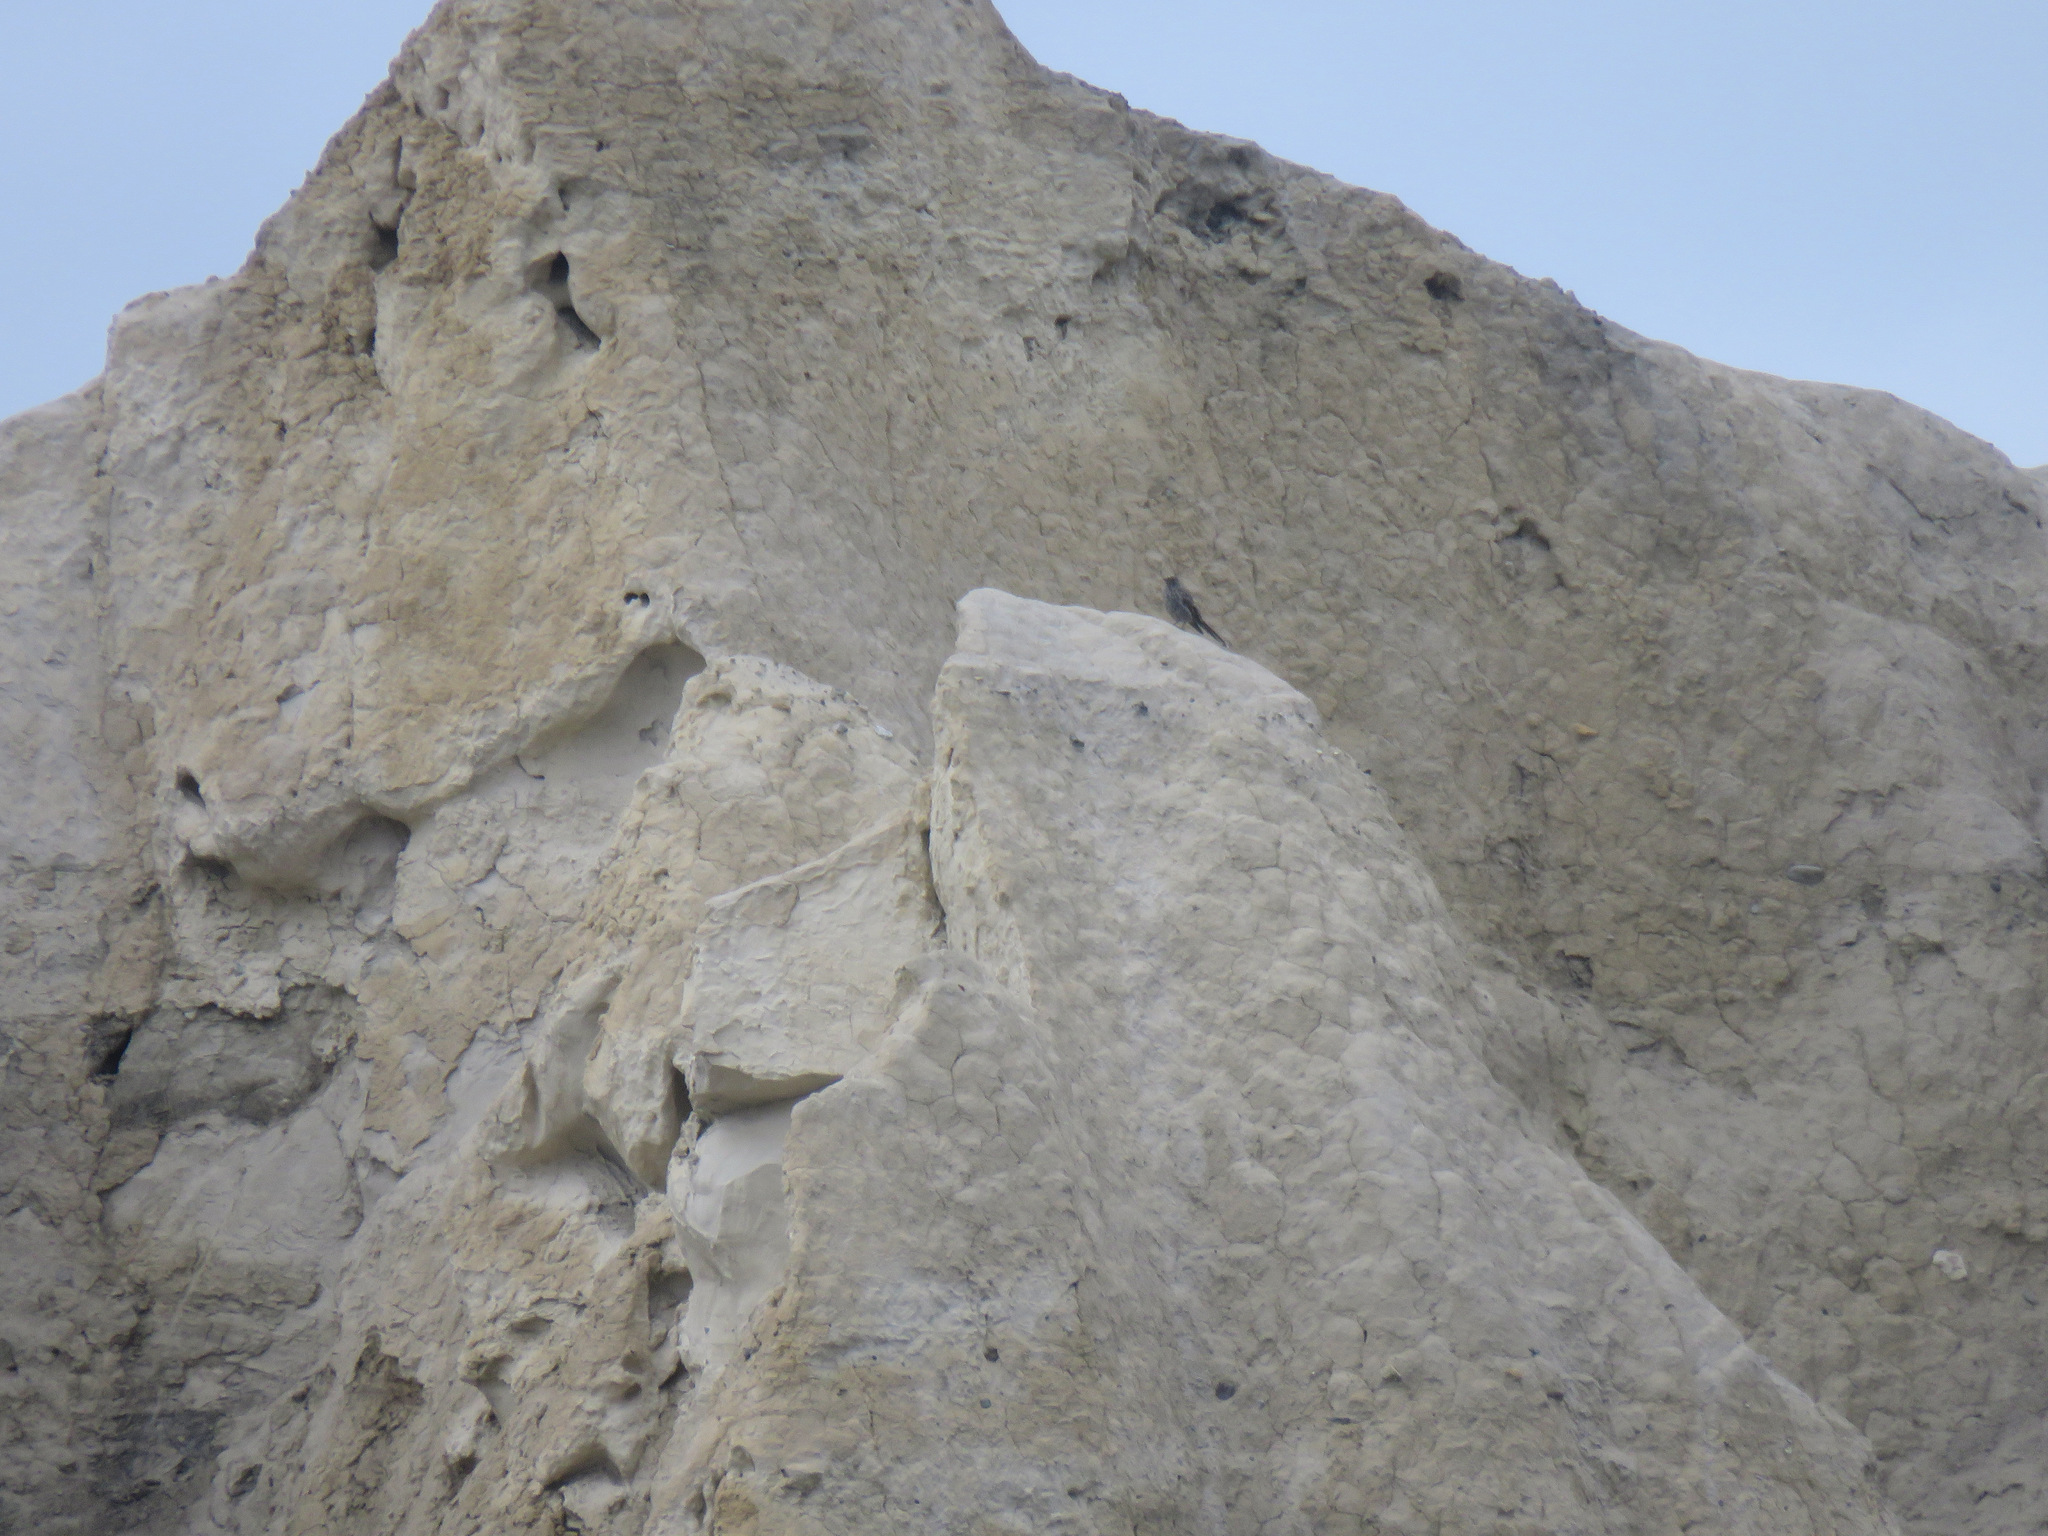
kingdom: Animalia
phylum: Chordata
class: Aves
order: Passeriformes
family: Turdidae
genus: Myadestes
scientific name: Myadestes townsendi
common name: Townsend's solitaire
